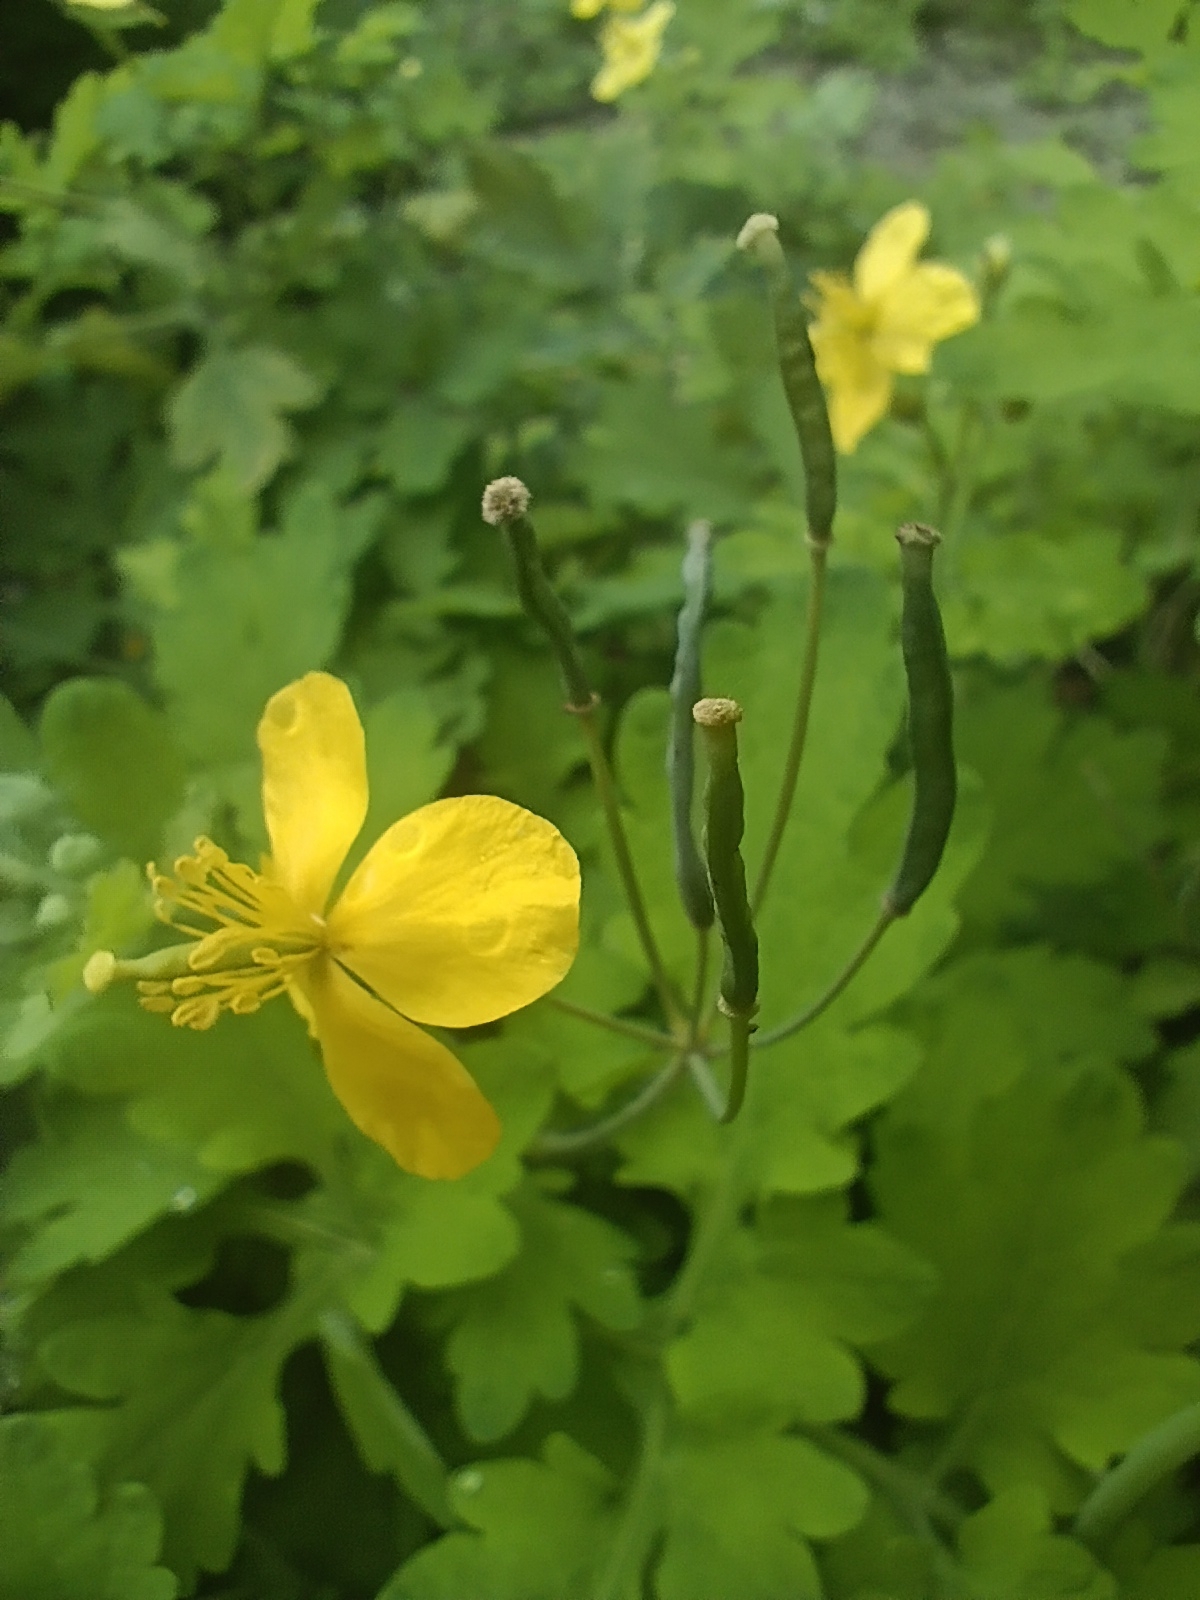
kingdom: Plantae
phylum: Tracheophyta
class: Magnoliopsida
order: Ranunculales
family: Papaveraceae
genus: Chelidonium
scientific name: Chelidonium majus
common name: Greater celandine
